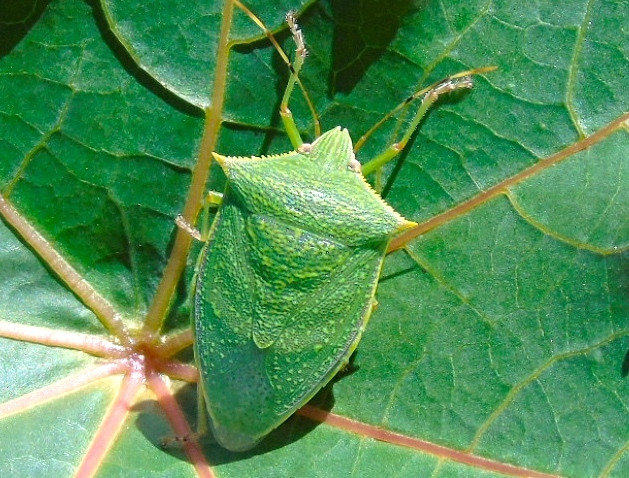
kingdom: Animalia
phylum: Arthropoda
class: Insecta
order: Hemiptera
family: Pentatomidae
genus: Loxa
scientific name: Loxa viridis
